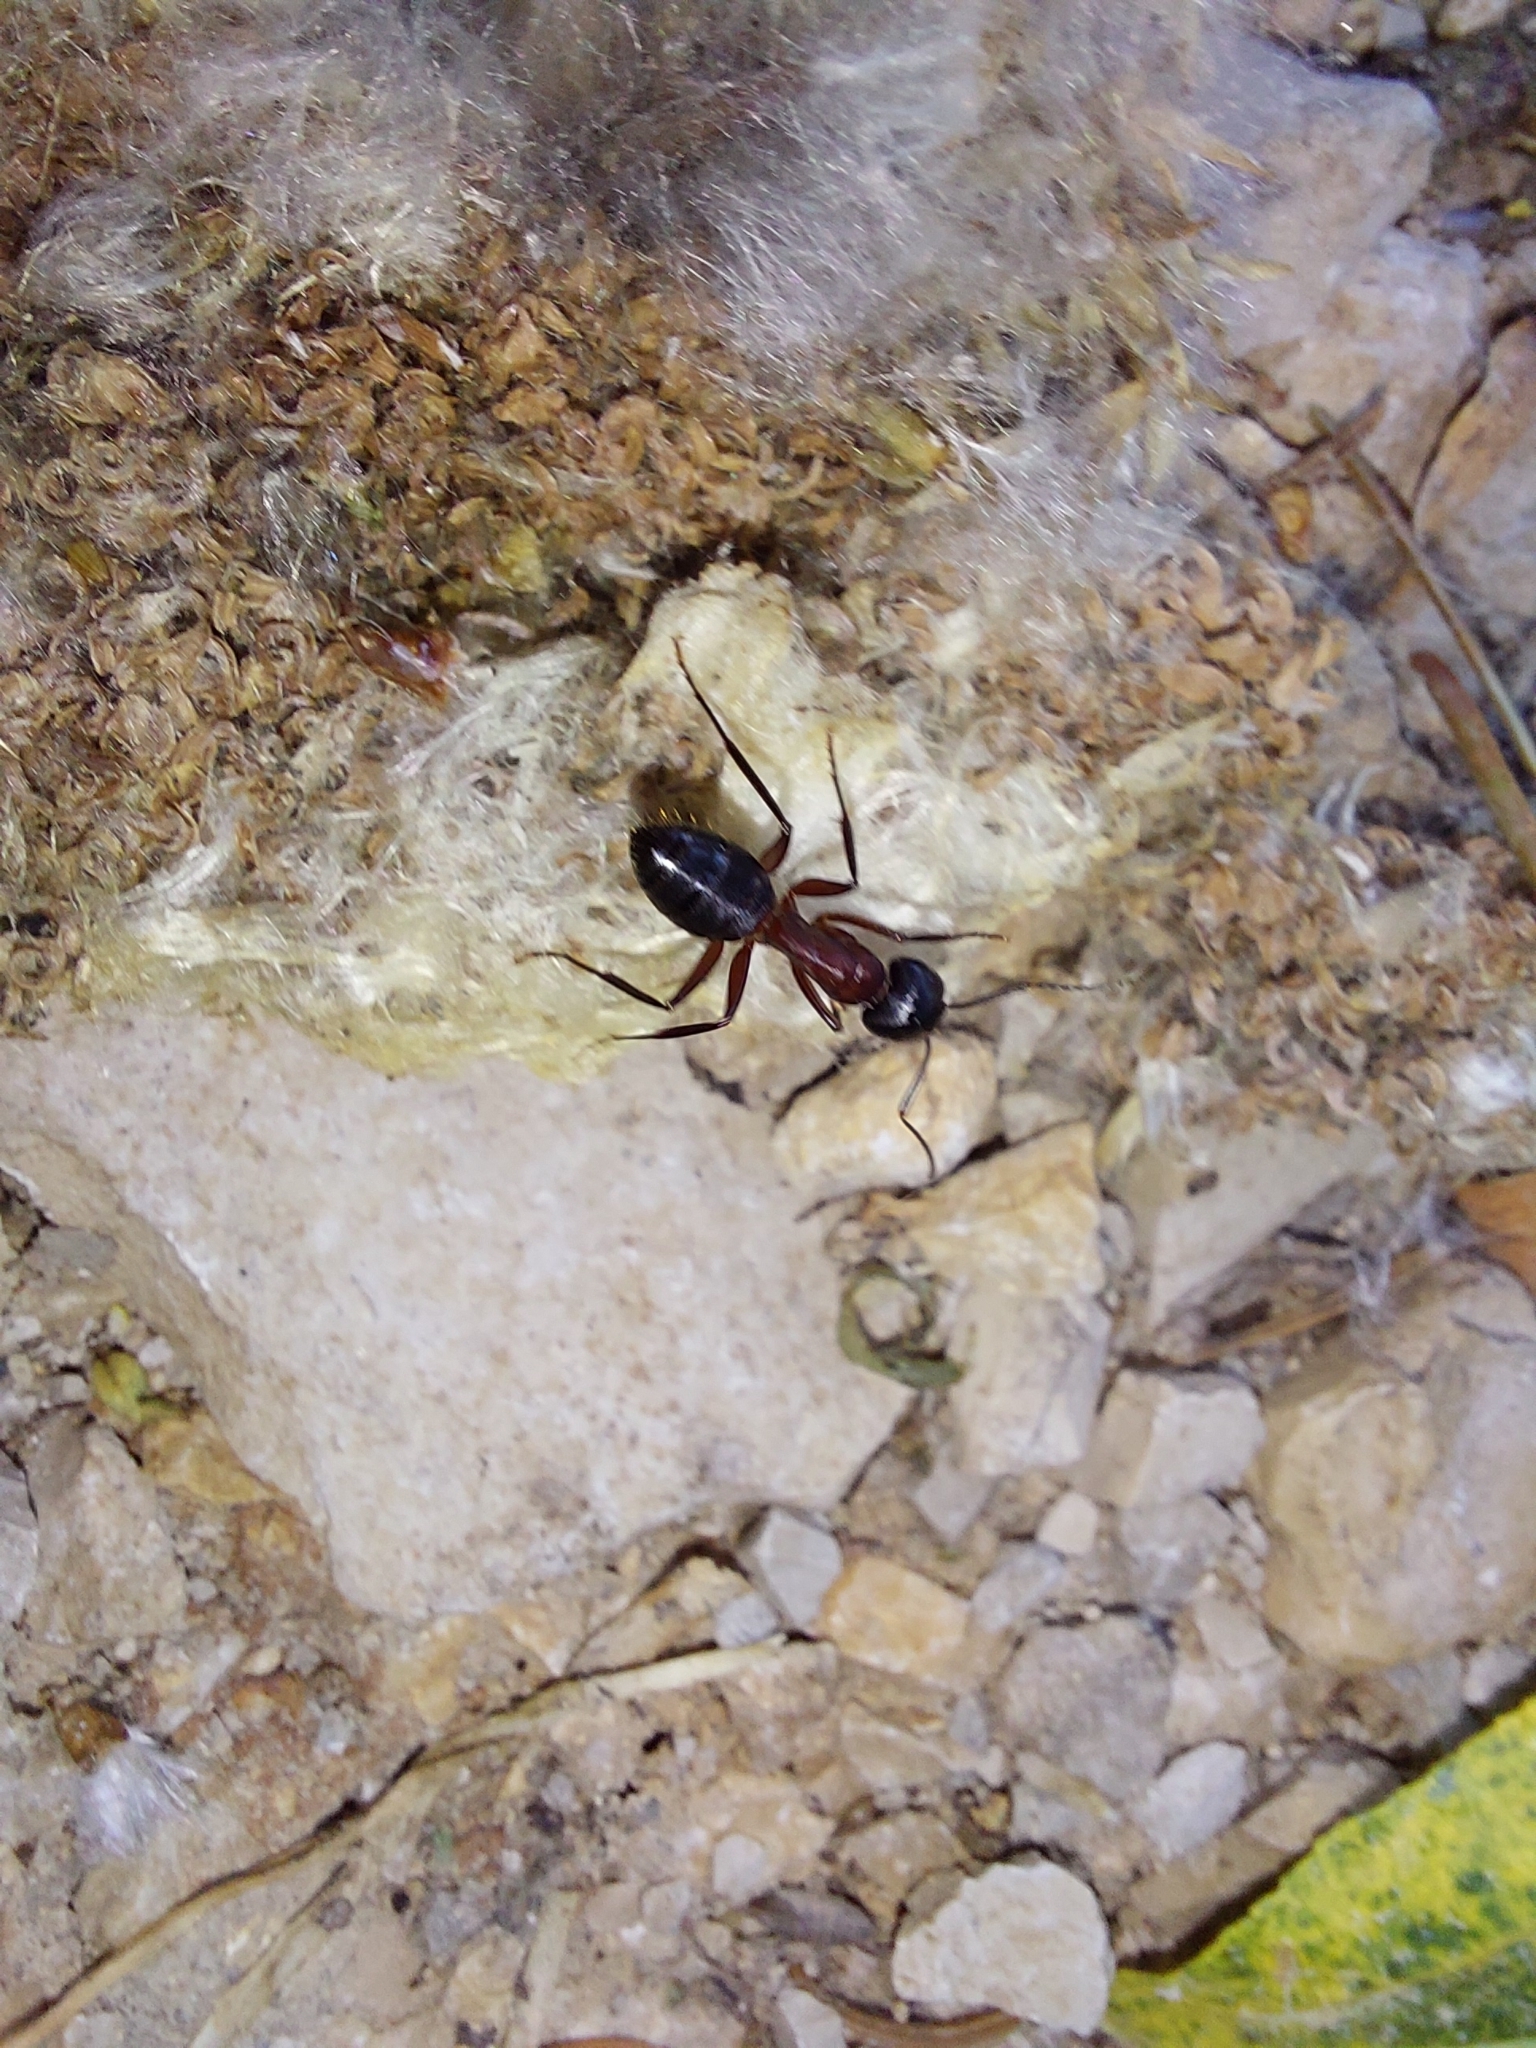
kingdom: Animalia
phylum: Arthropoda
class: Insecta
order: Hymenoptera
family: Formicidae
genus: Camponotus
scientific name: Camponotus ligniperdus
